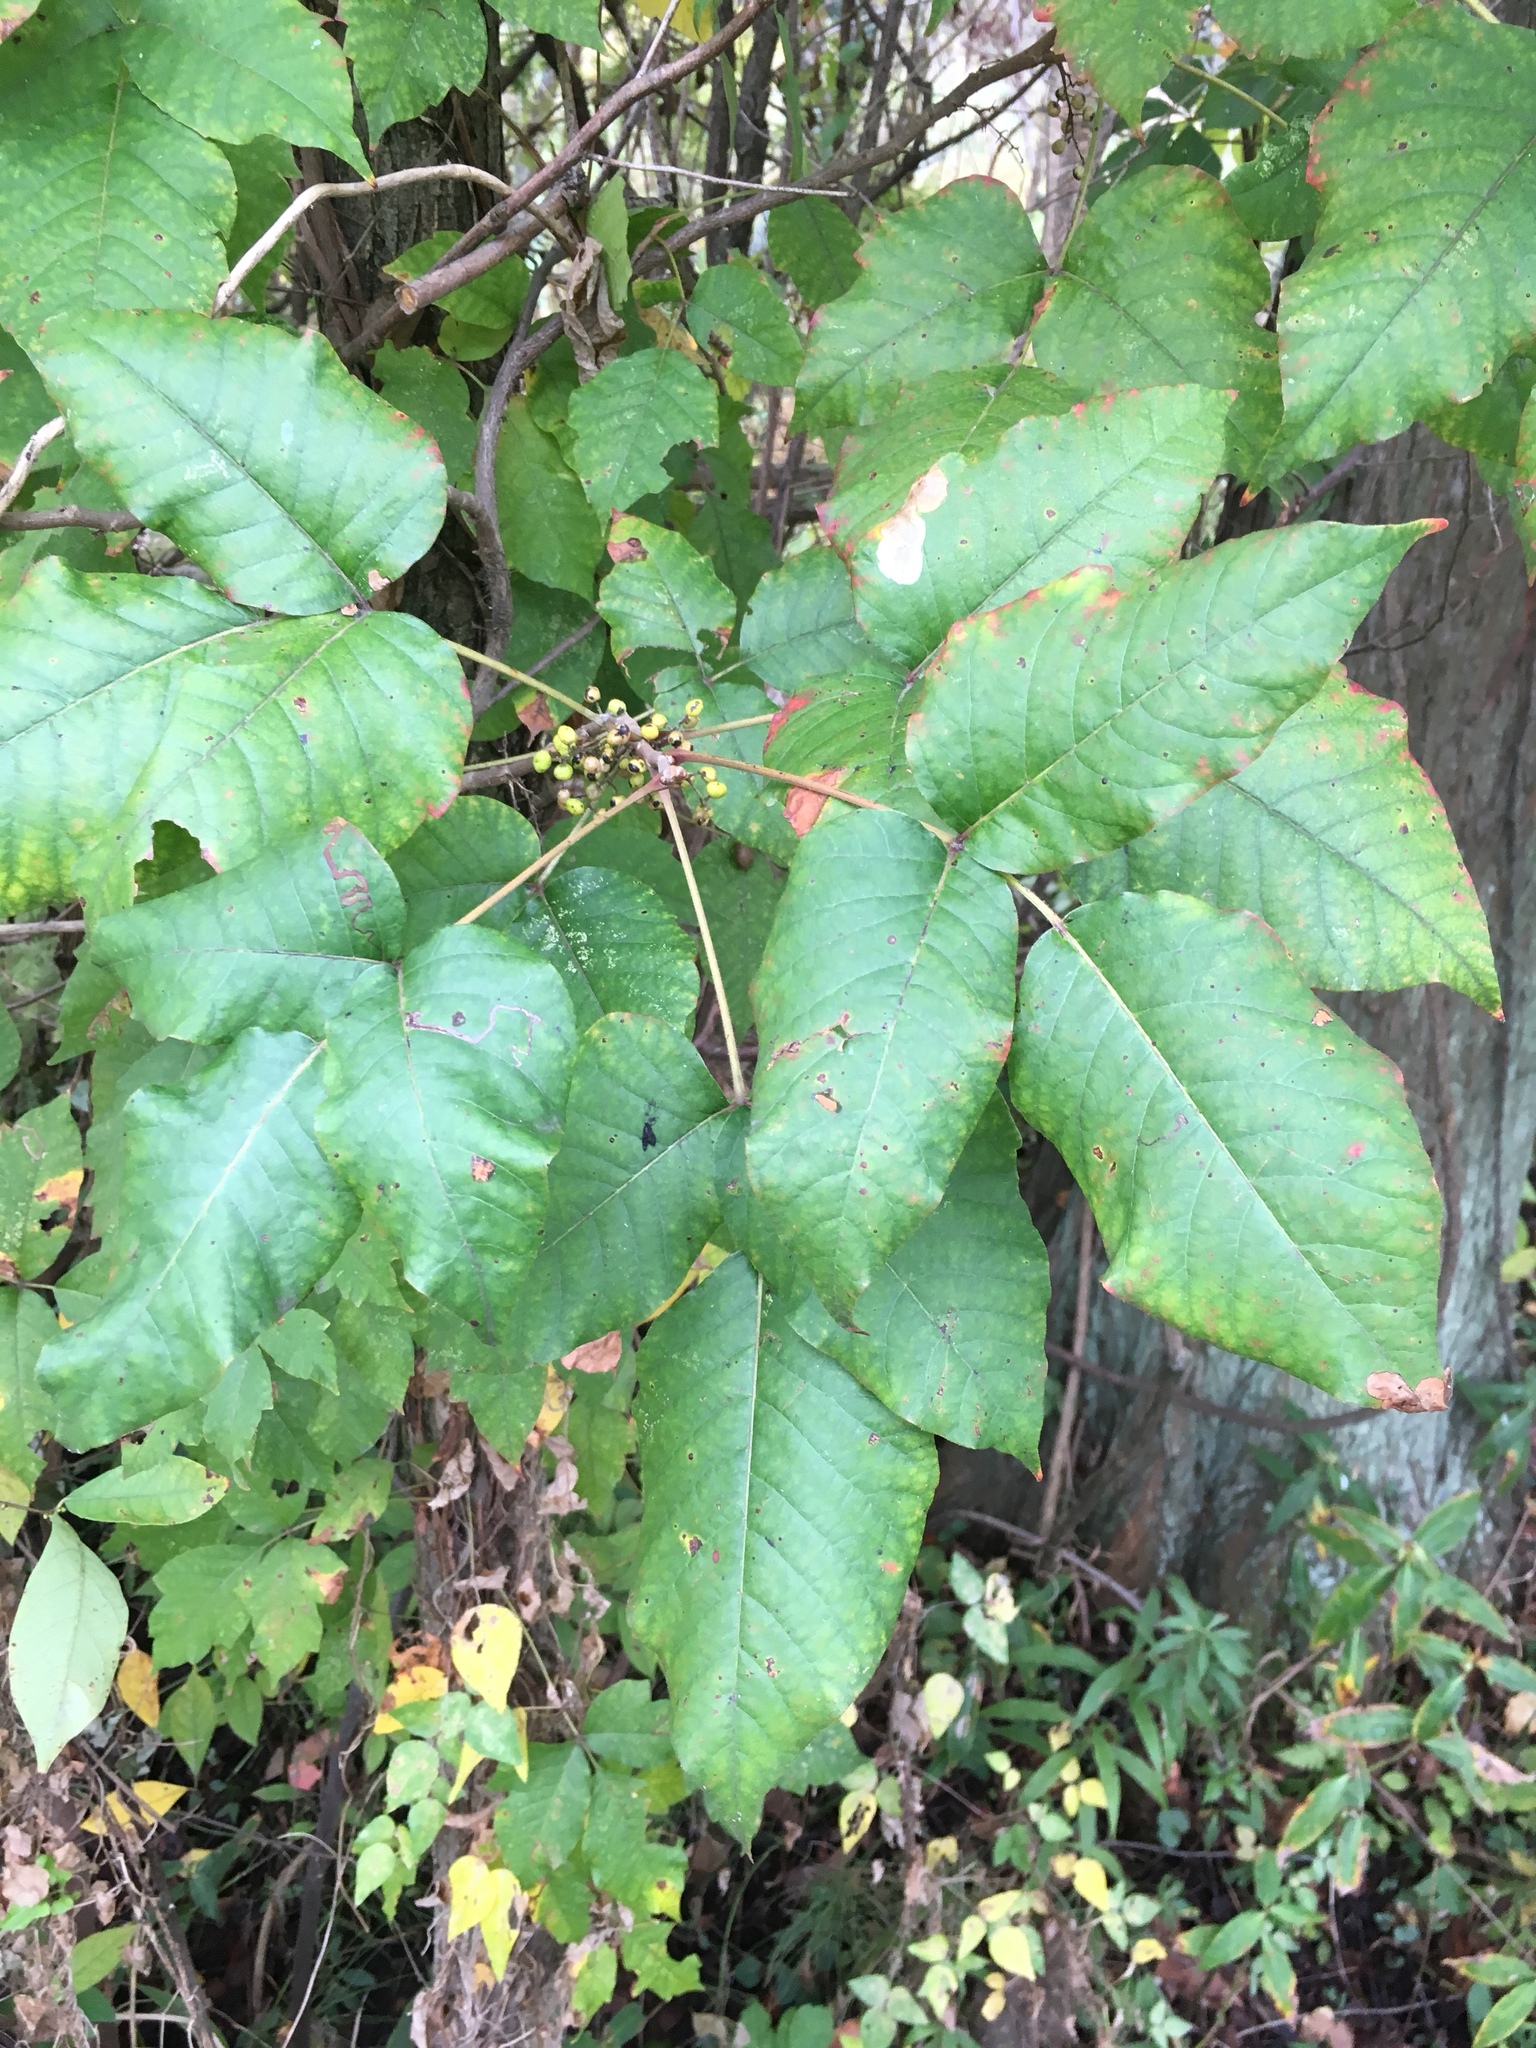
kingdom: Plantae
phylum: Tracheophyta
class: Magnoliopsida
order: Sapindales
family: Anacardiaceae
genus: Toxicodendron
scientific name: Toxicodendron radicans
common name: Poison ivy
